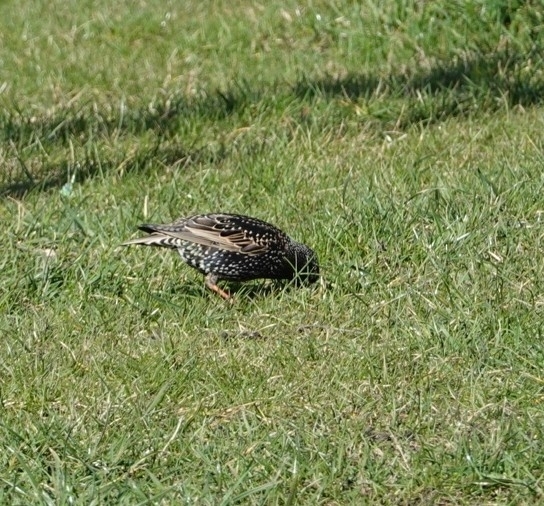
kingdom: Animalia
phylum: Chordata
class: Aves
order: Passeriformes
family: Sturnidae
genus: Sturnus
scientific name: Sturnus vulgaris
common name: Common starling
